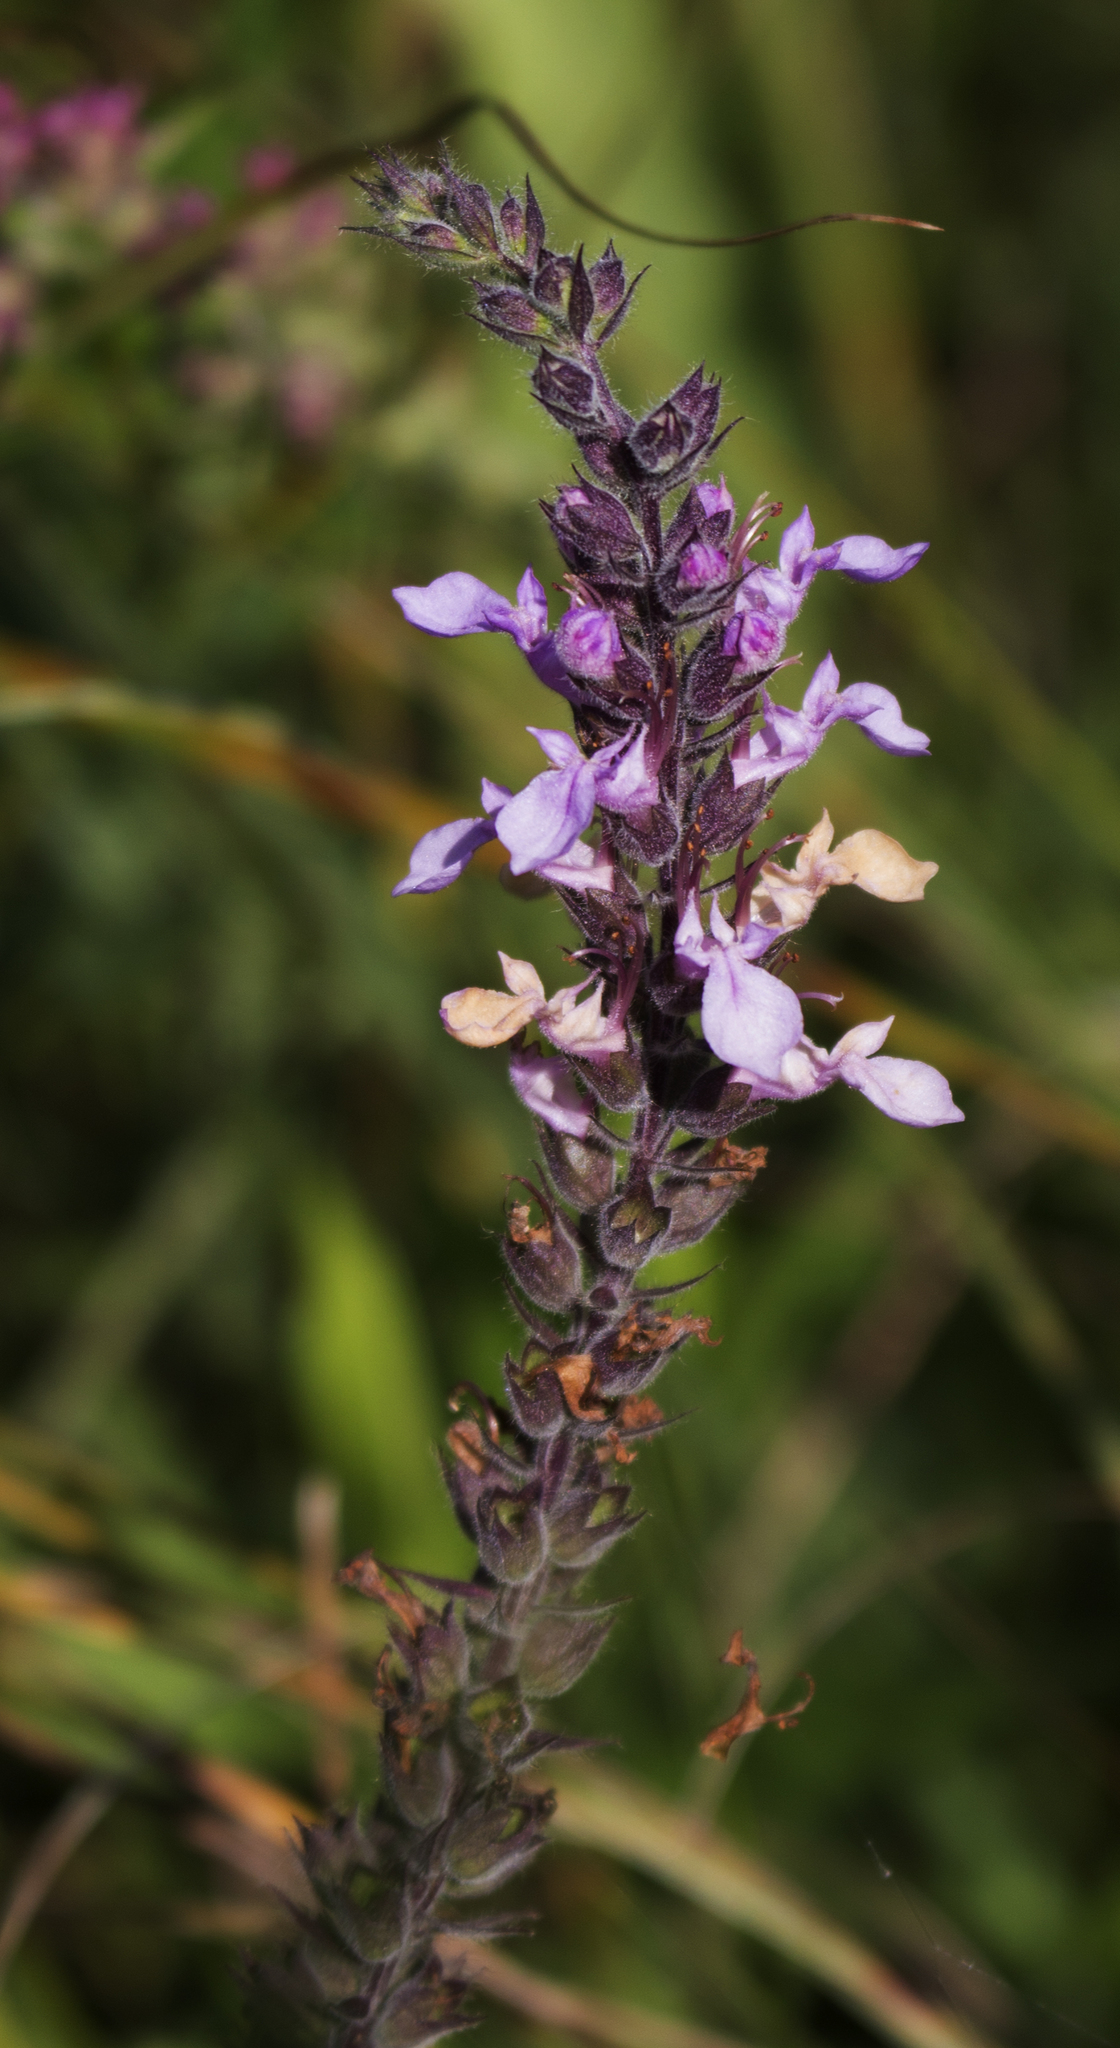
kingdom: Plantae
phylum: Tracheophyta
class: Magnoliopsida
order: Lamiales
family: Lamiaceae
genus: Teucrium
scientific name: Teucrium canadense
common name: American germander
